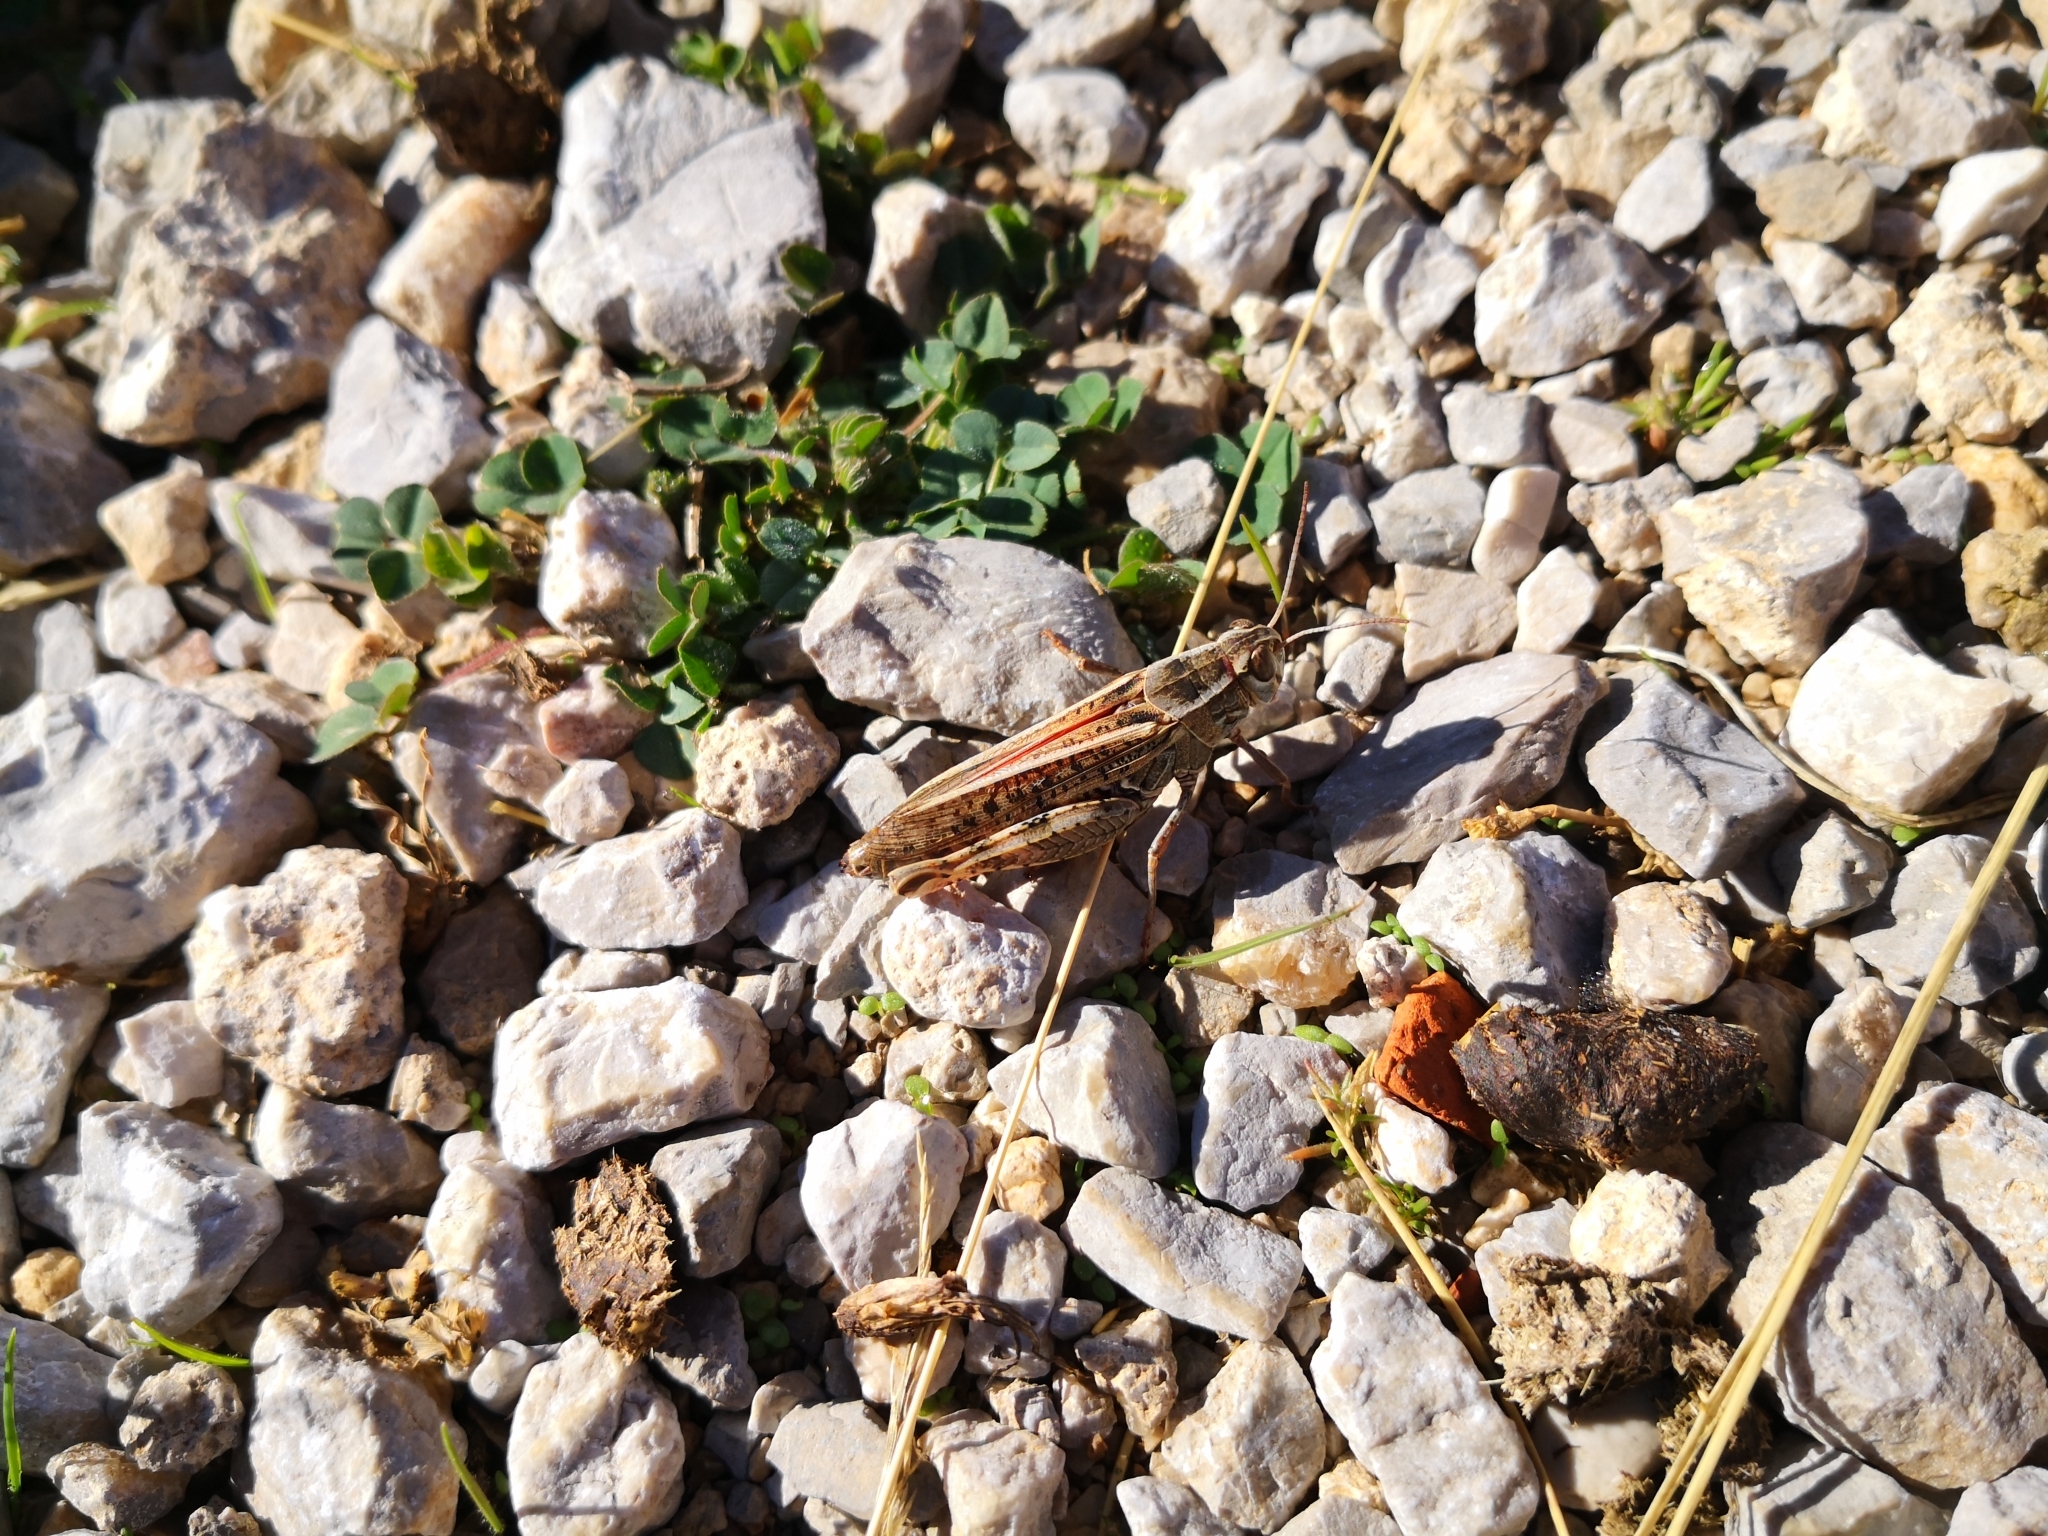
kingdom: Animalia
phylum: Arthropoda
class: Insecta
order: Orthoptera
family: Acrididae
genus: Calliptamus
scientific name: Calliptamus
